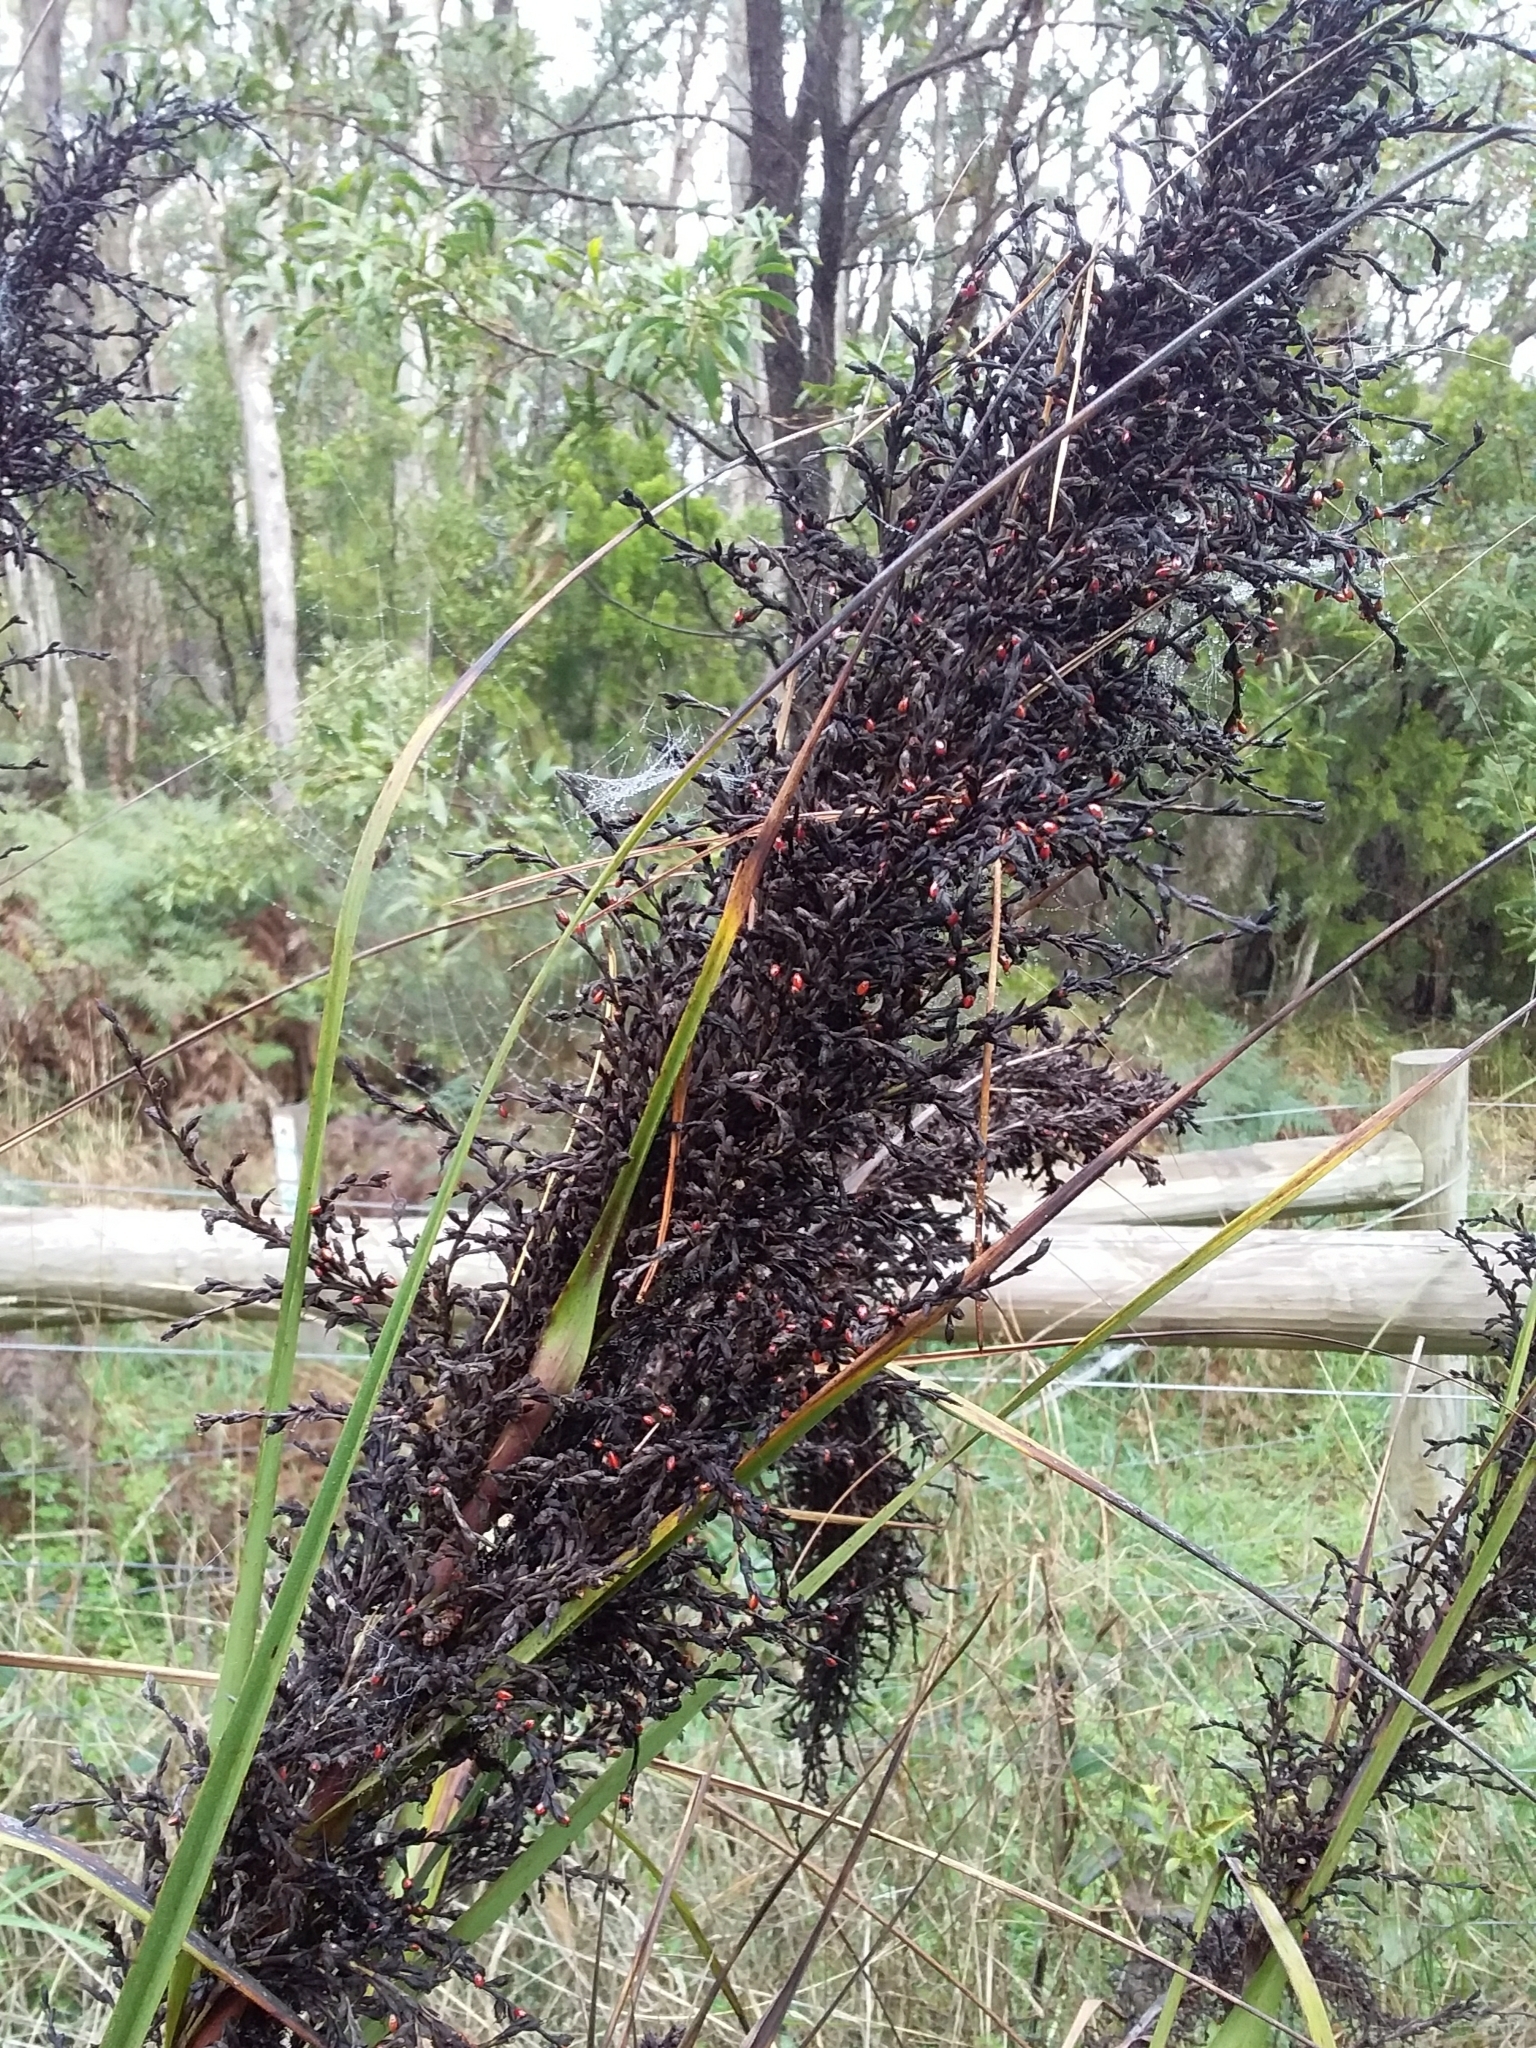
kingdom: Plantae
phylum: Tracheophyta
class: Liliopsida
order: Poales
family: Cyperaceae
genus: Gahnia
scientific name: Gahnia sieberiana
